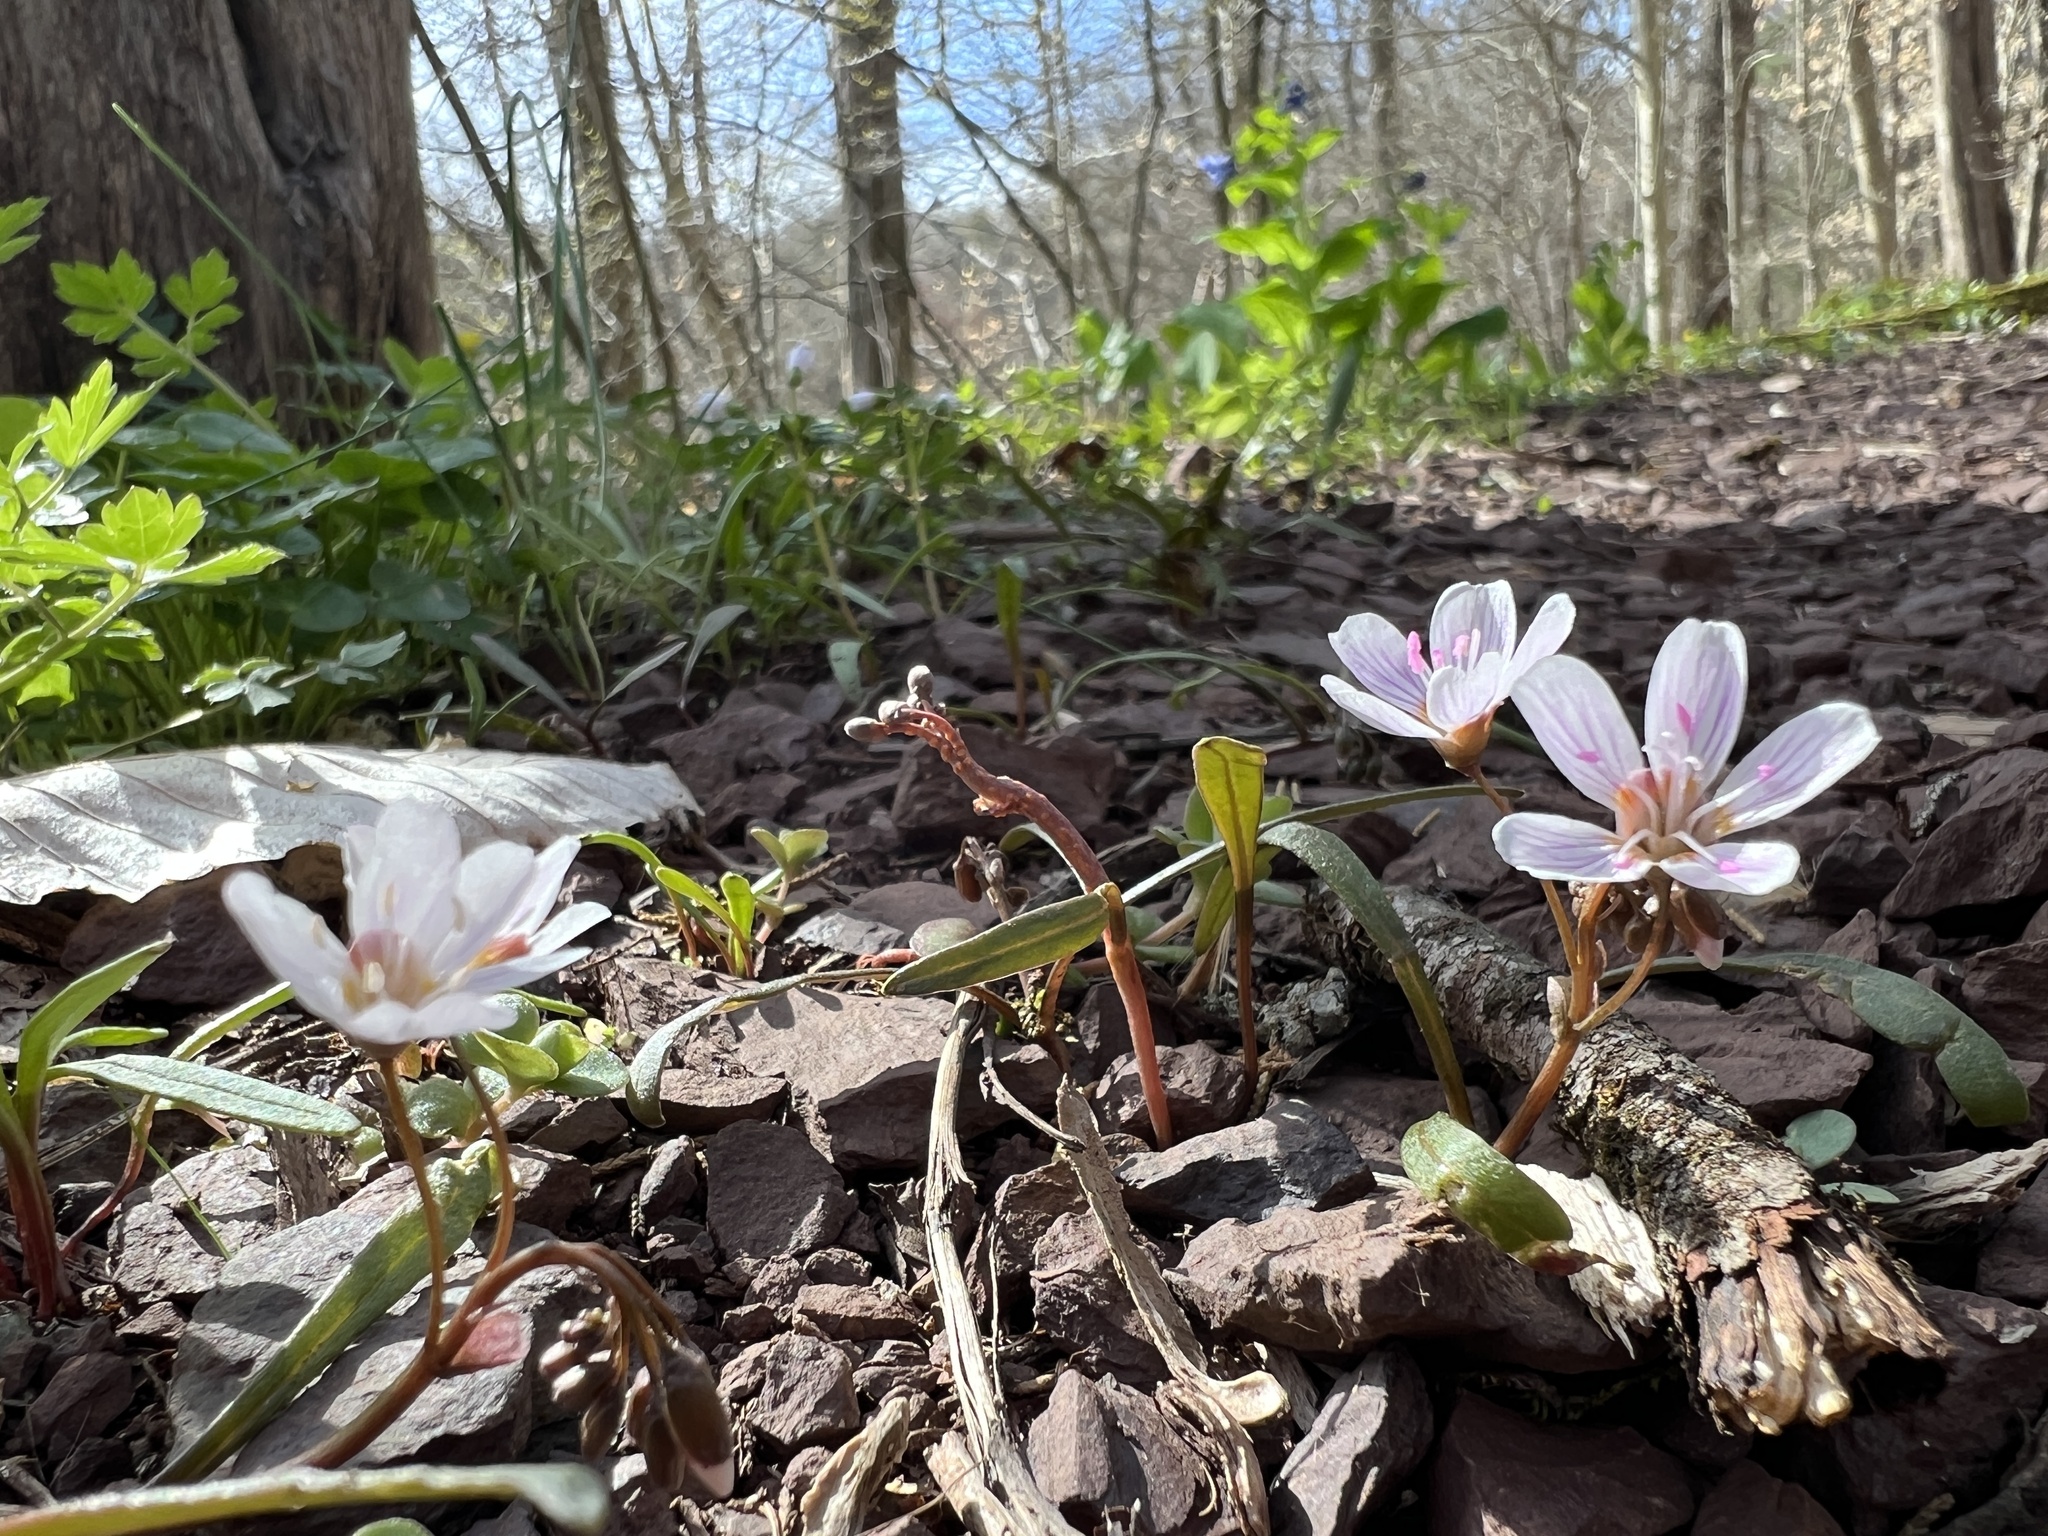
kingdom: Plantae
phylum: Tracheophyta
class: Magnoliopsida
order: Caryophyllales
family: Montiaceae
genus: Claytonia
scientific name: Claytonia virginica
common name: Virginia springbeauty
